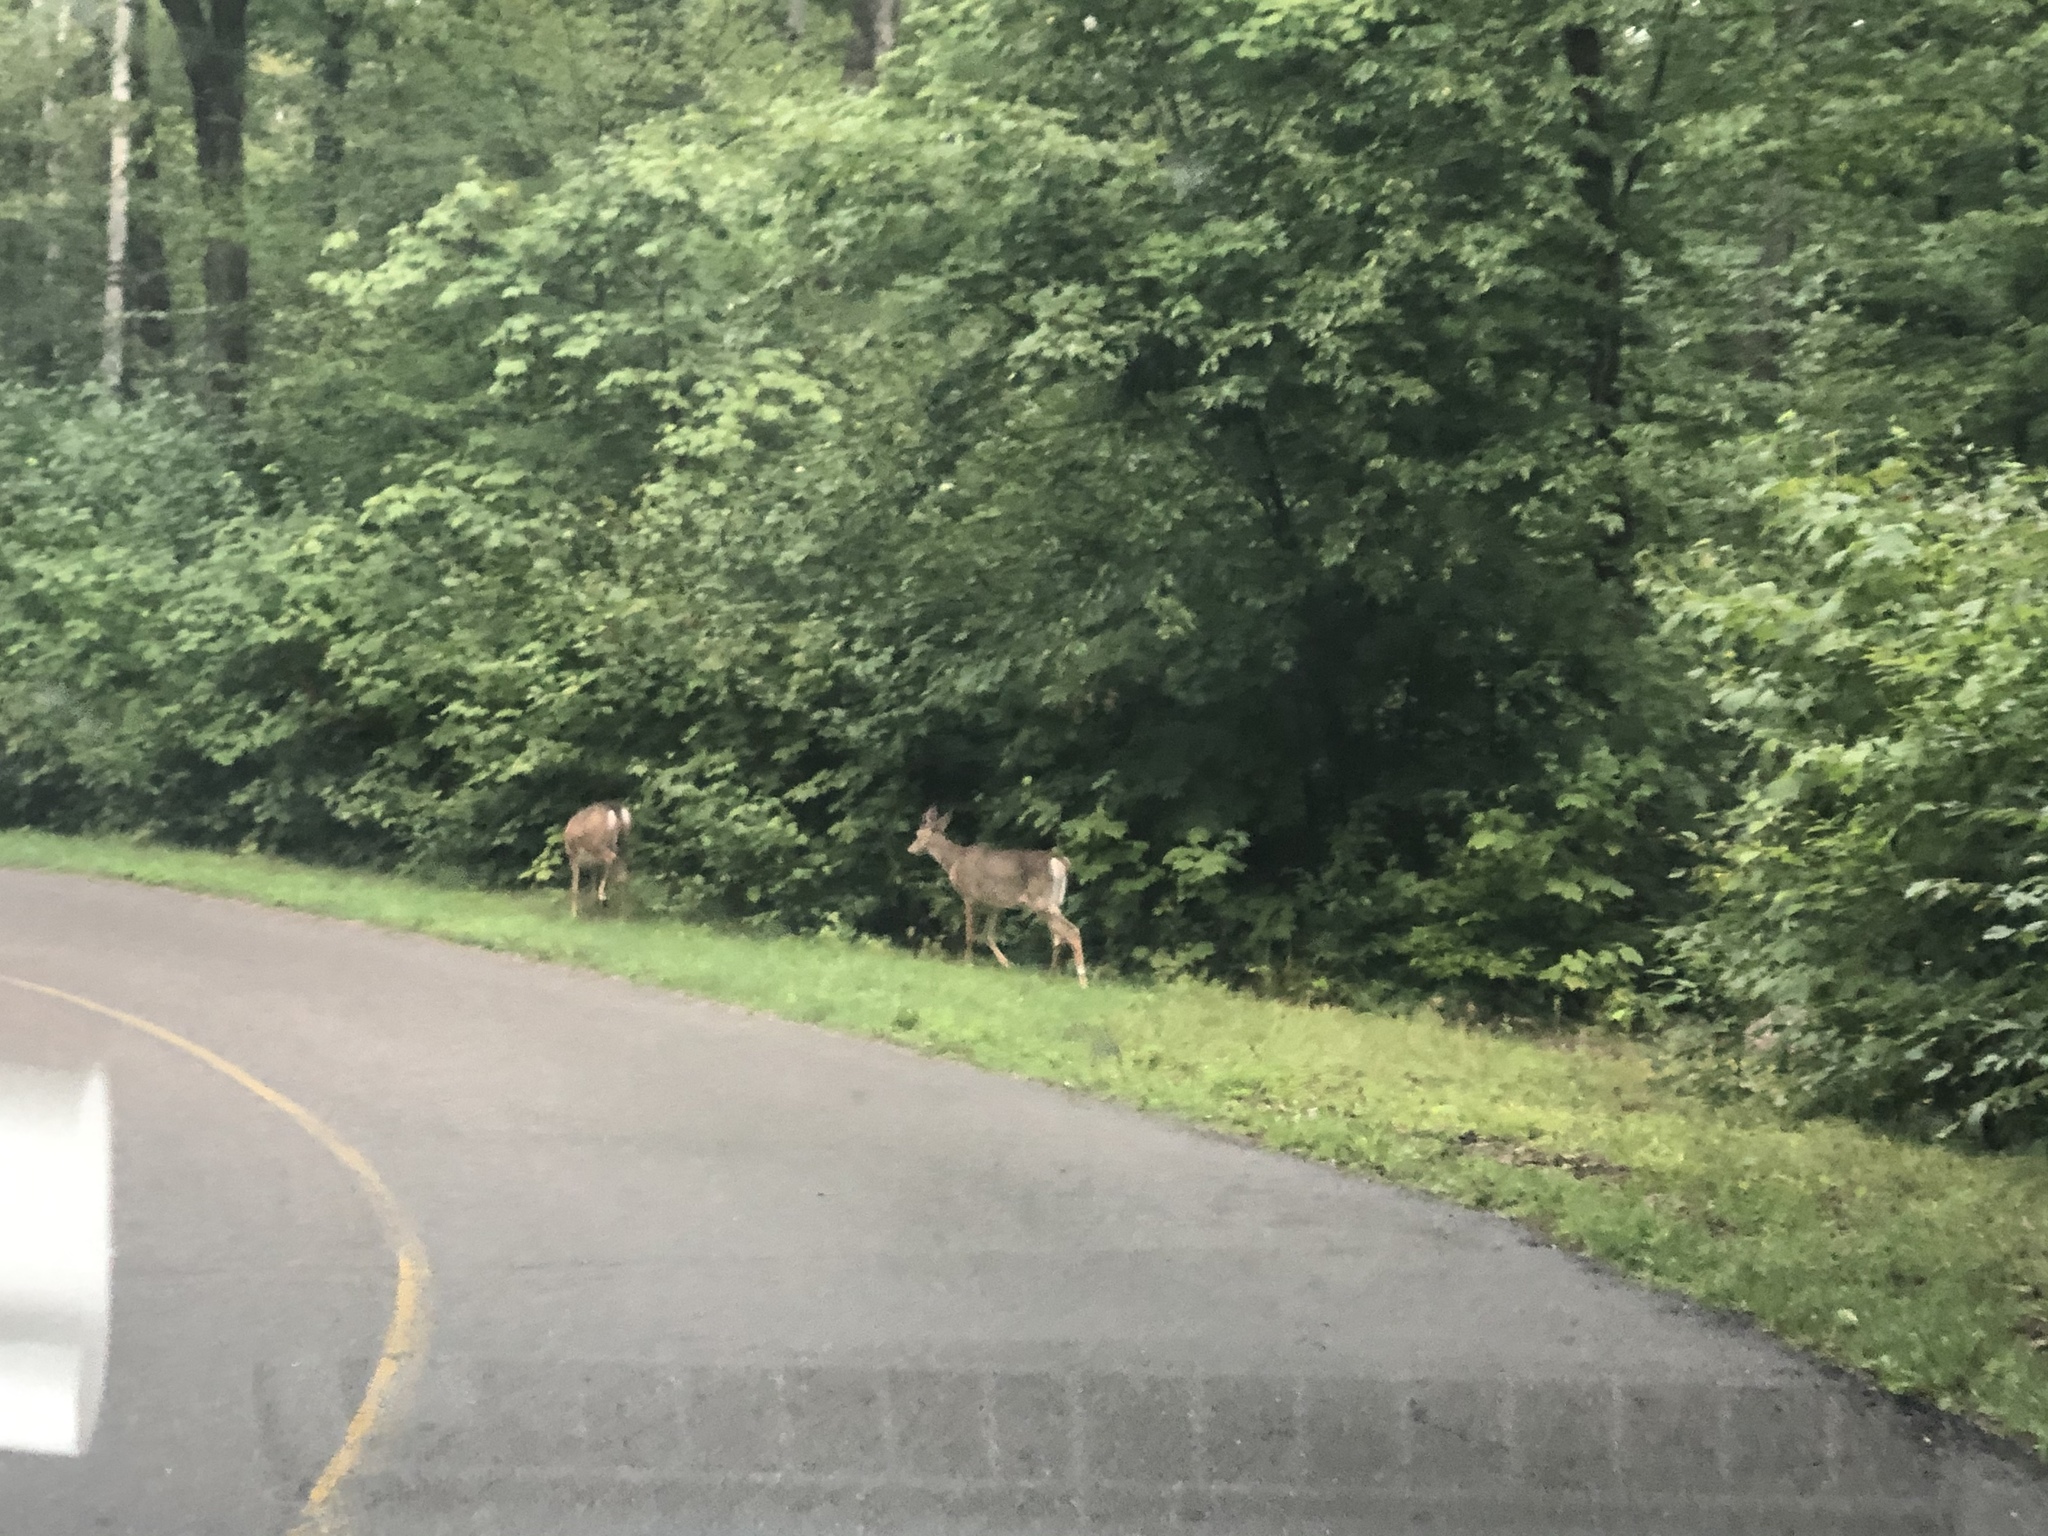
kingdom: Animalia
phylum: Chordata
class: Mammalia
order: Artiodactyla
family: Cervidae
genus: Odocoileus
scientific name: Odocoileus virginianus
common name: White-tailed deer
